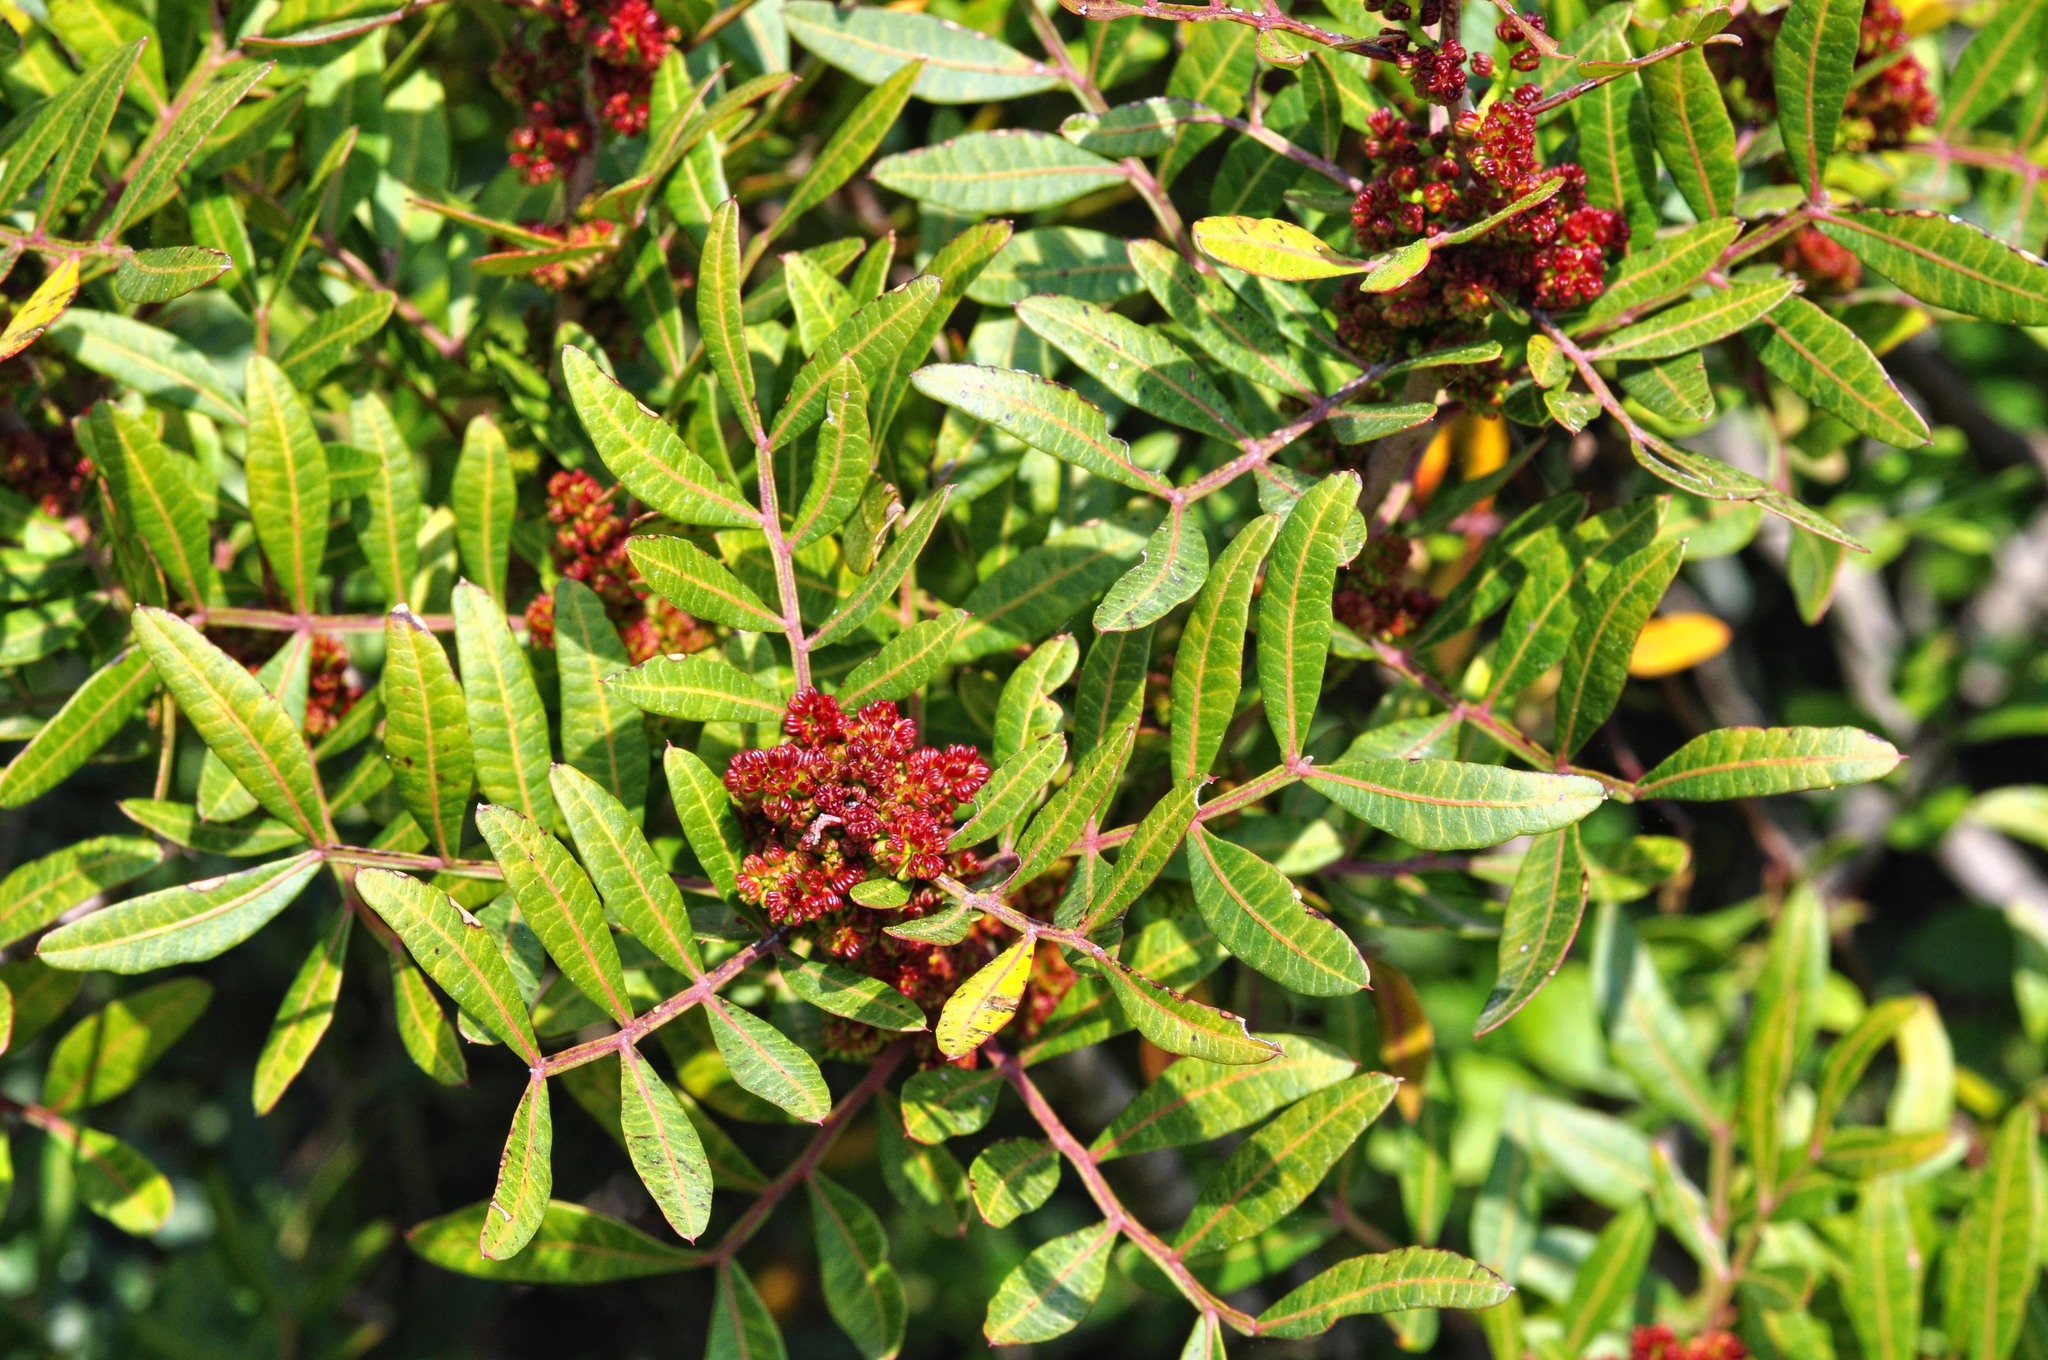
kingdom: Plantae
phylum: Tracheophyta
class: Magnoliopsida
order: Sapindales
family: Anacardiaceae
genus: Pistacia
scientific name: Pistacia lentiscus
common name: Lentisk
